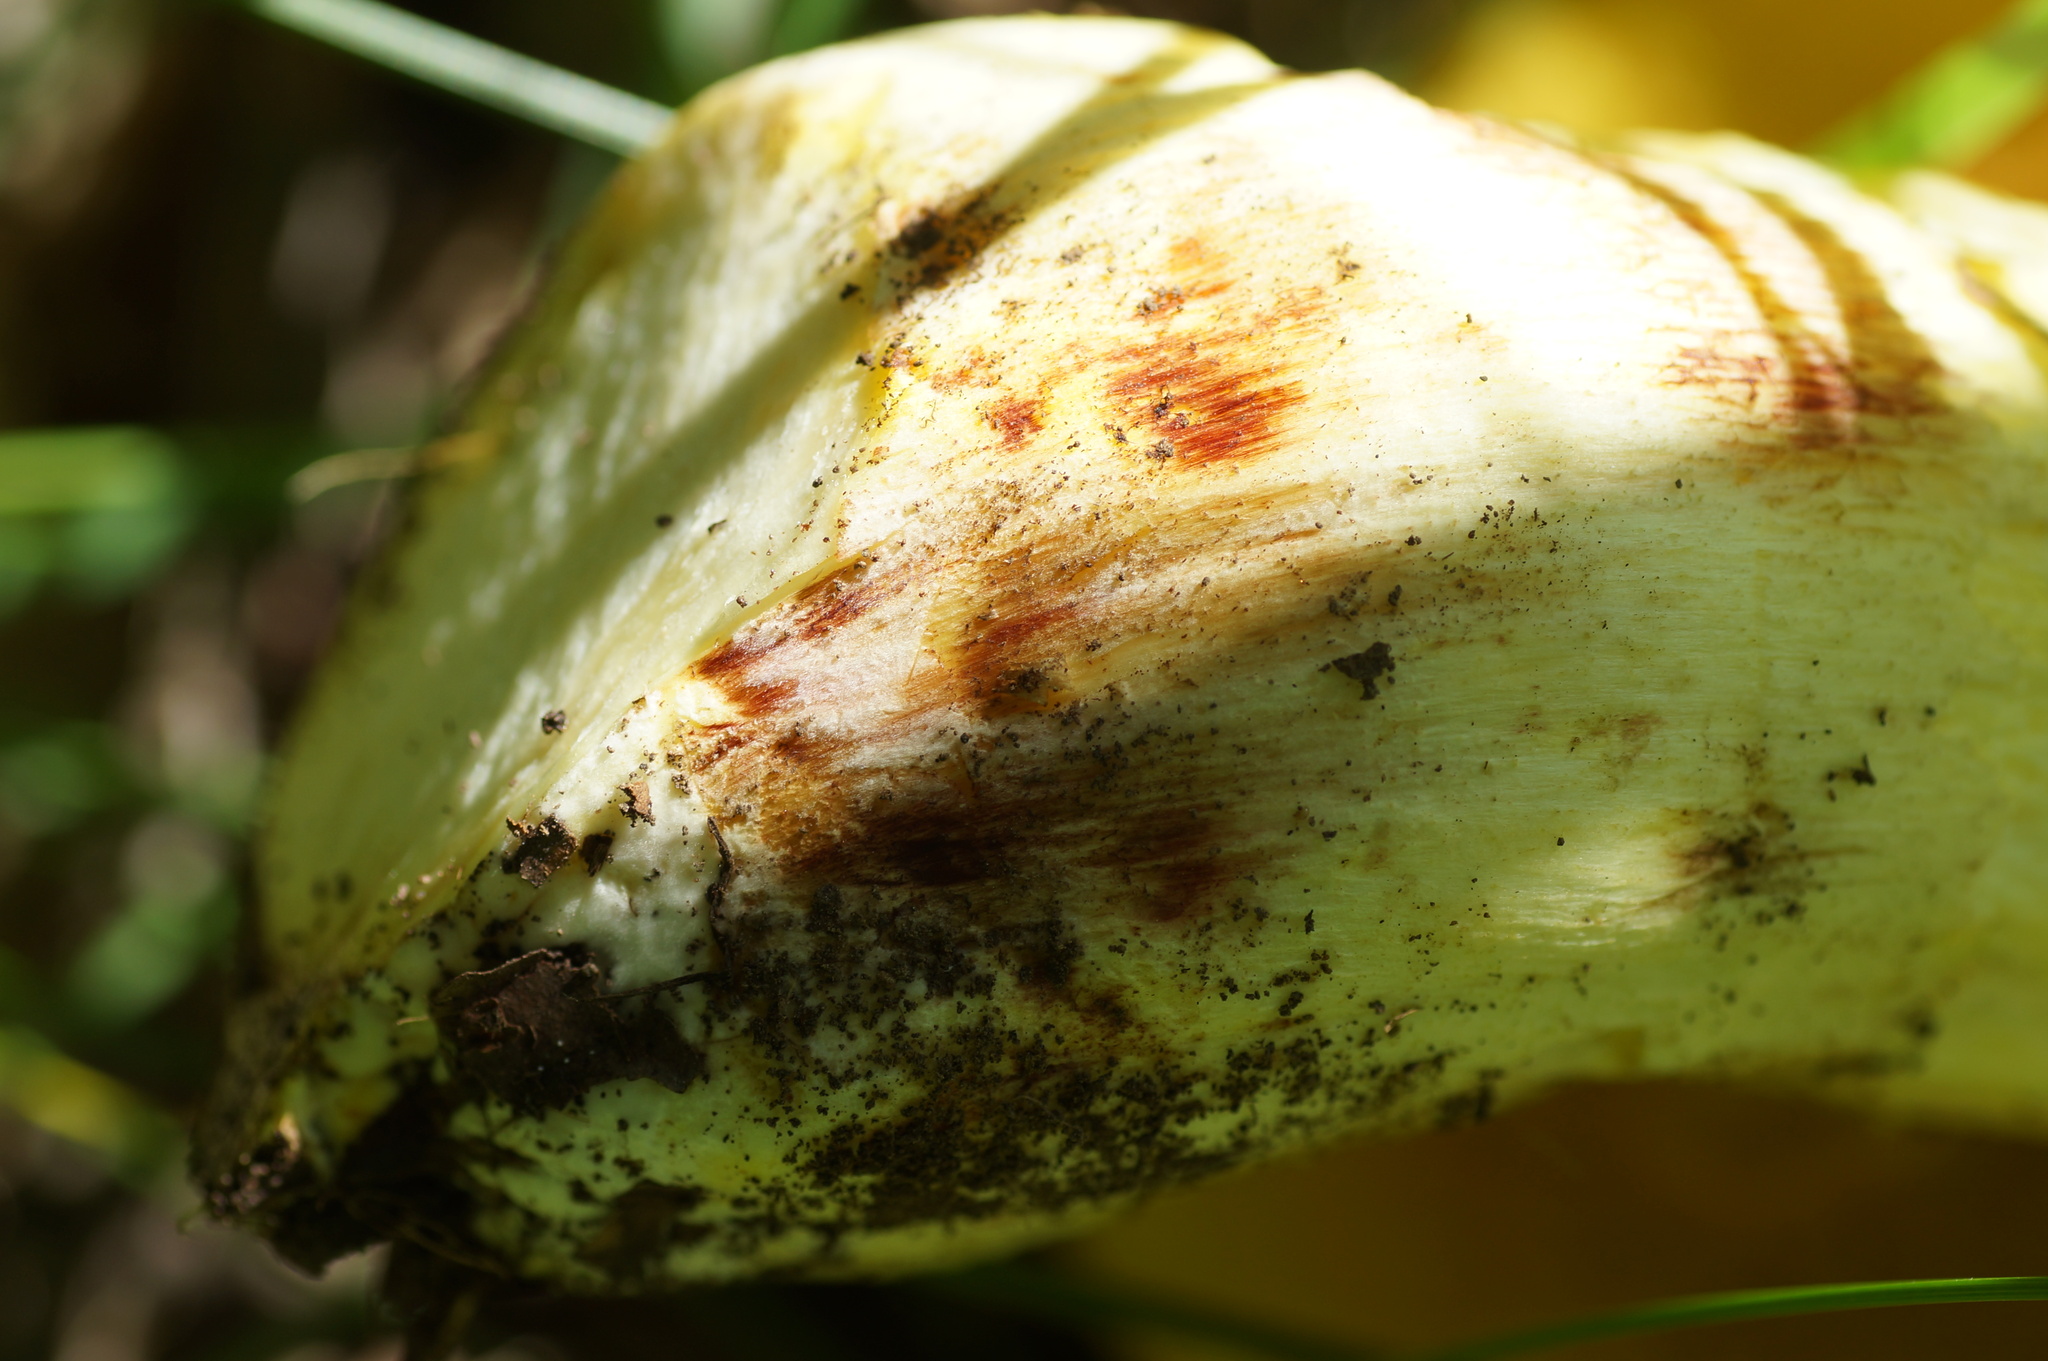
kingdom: Fungi
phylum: Basidiomycota
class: Agaricomycetes
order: Boletales
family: Boletaceae
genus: Caloboletus
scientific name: Caloboletus radicans
